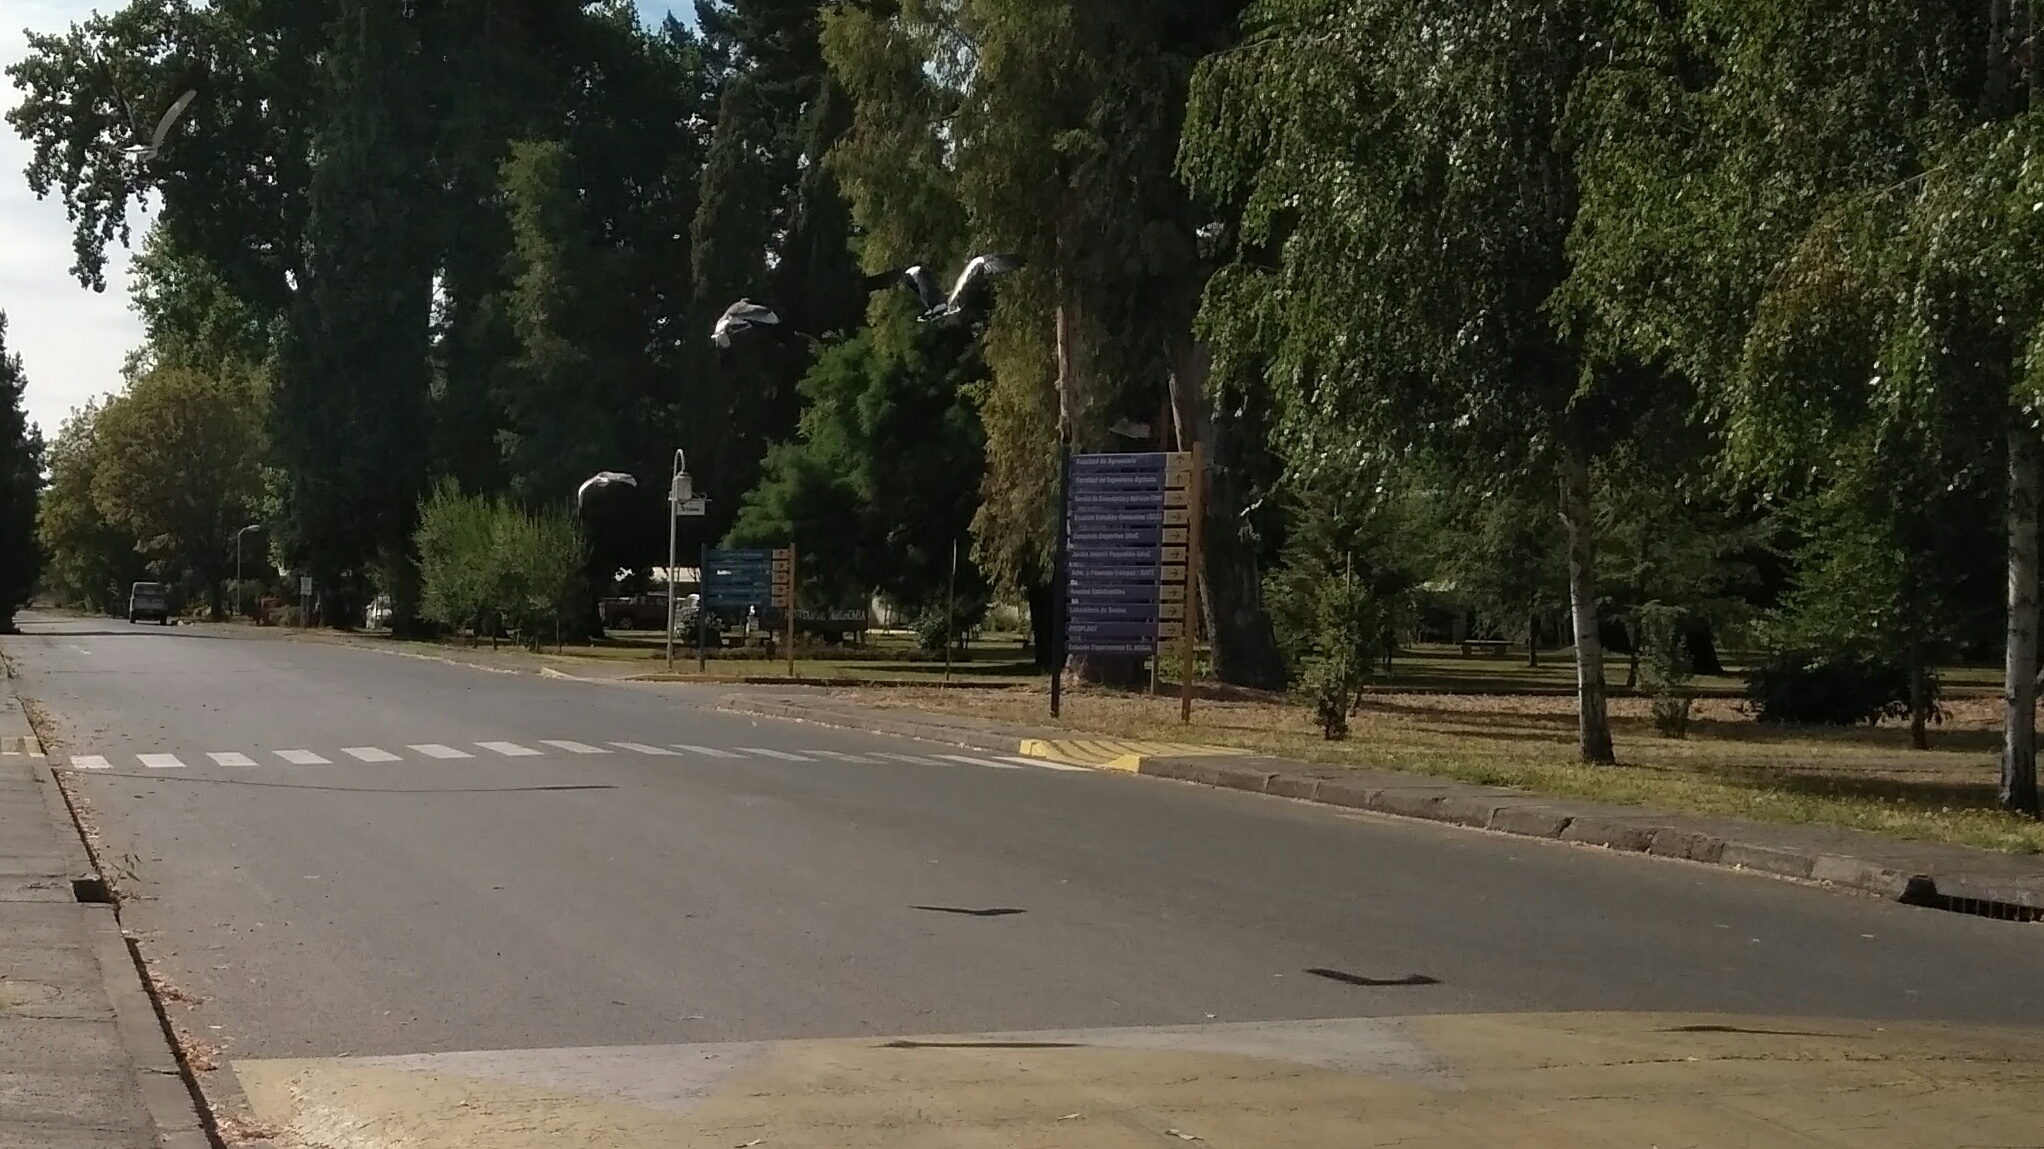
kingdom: Animalia
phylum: Chordata
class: Aves
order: Charadriiformes
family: Charadriidae
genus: Vanellus
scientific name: Vanellus chilensis
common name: Southern lapwing
